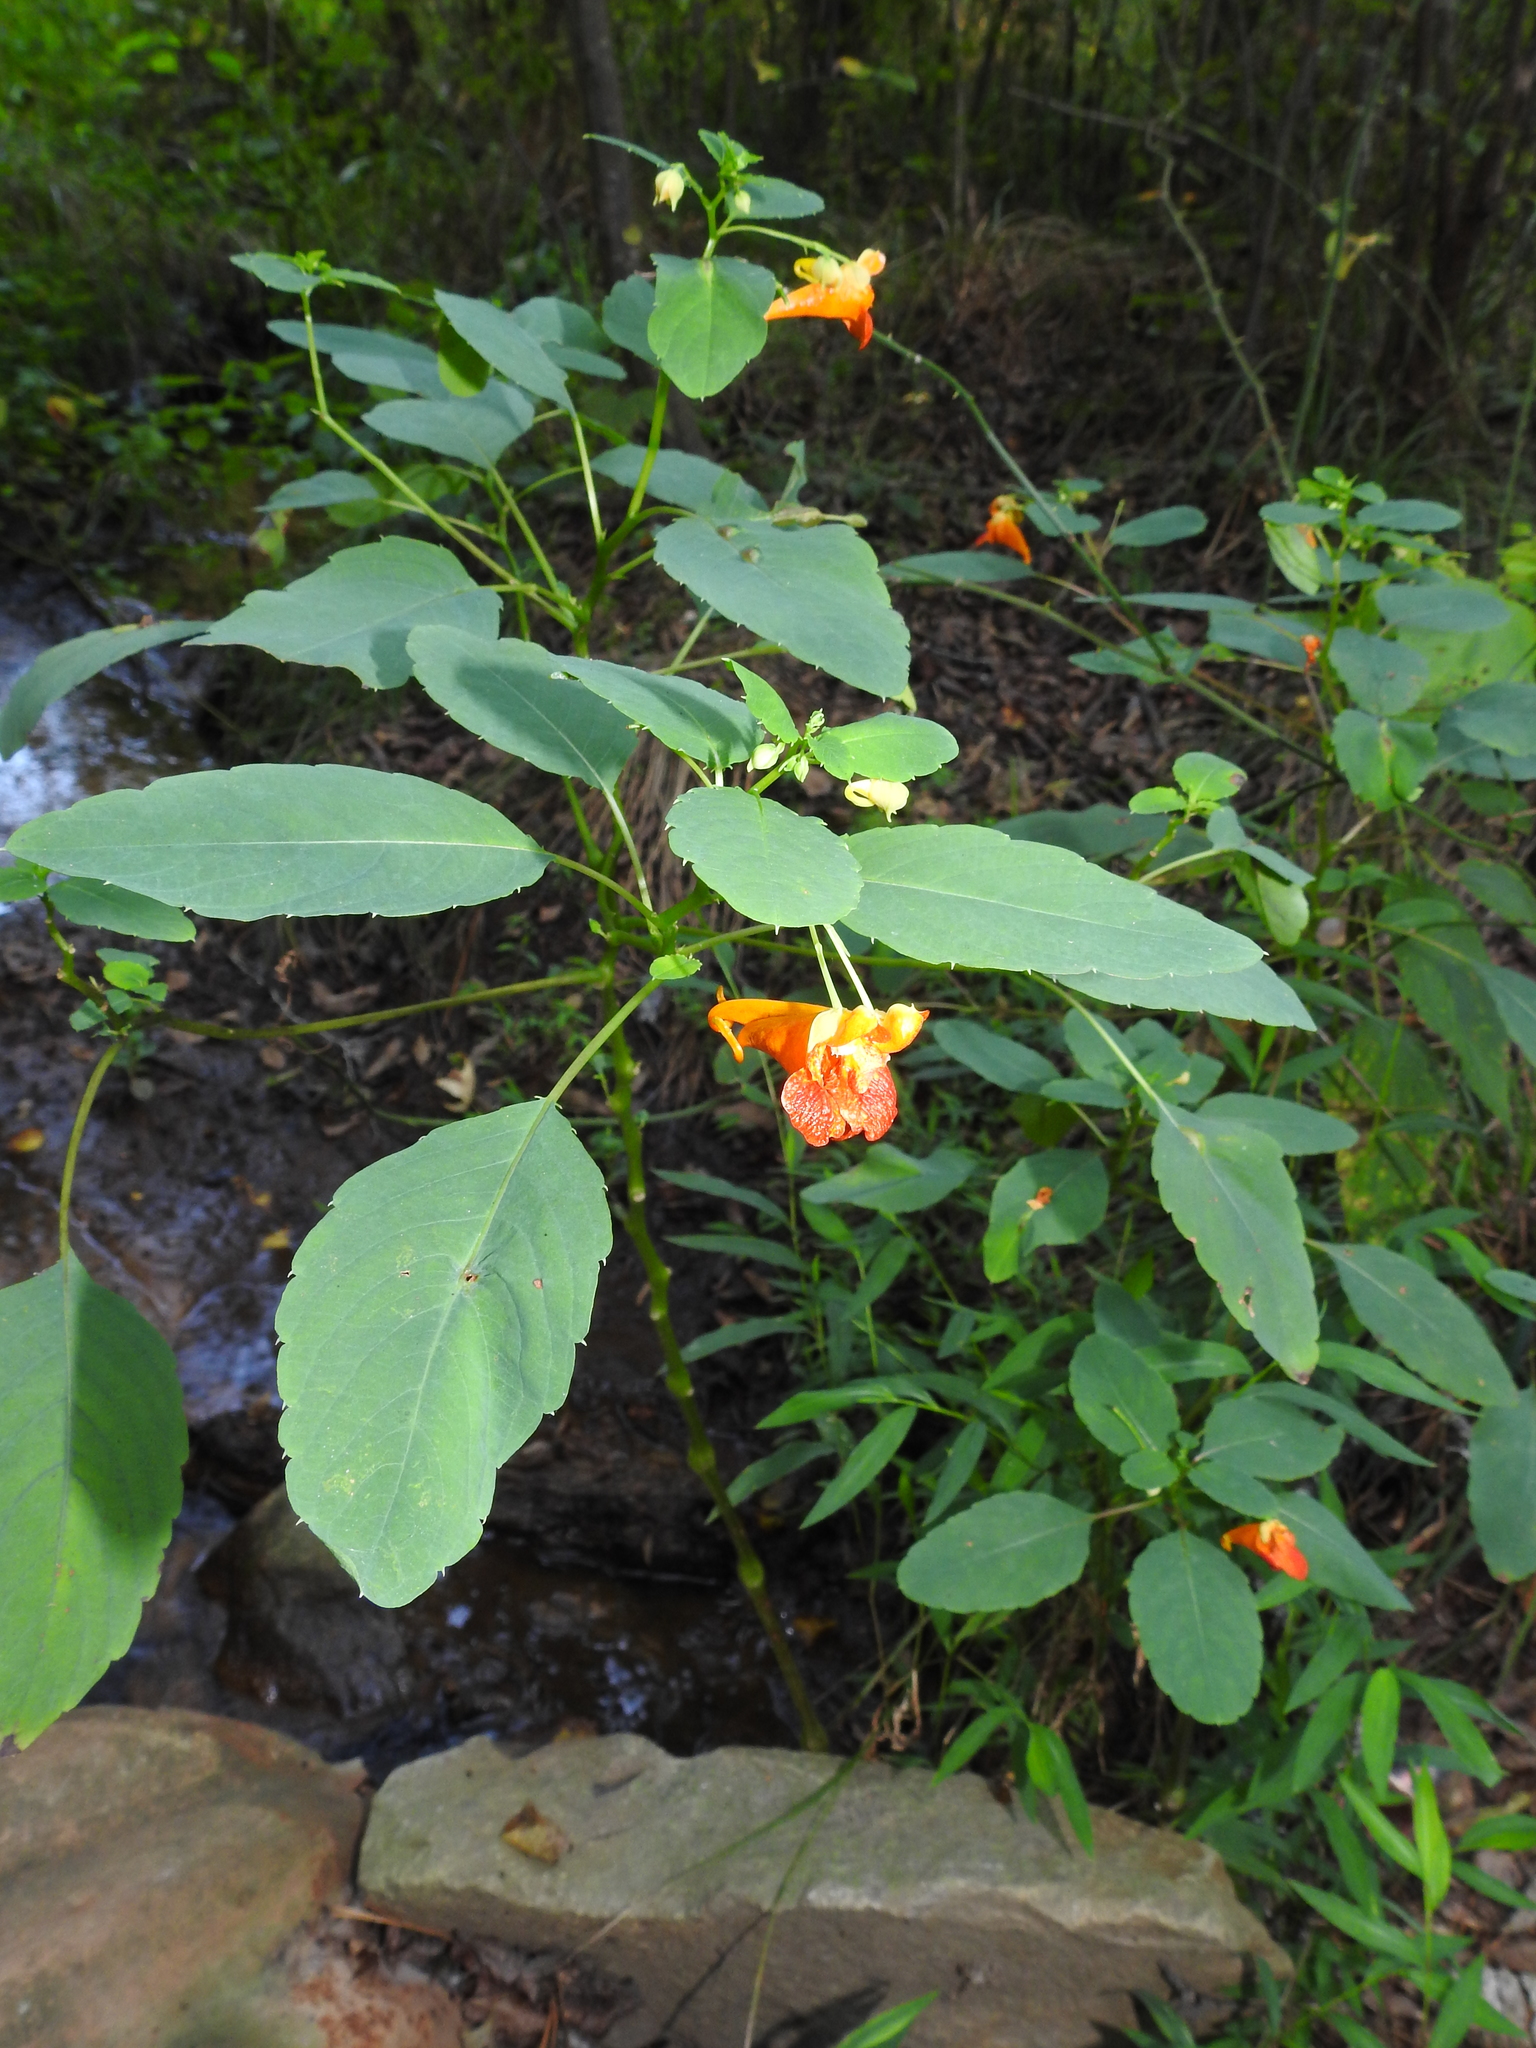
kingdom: Plantae
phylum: Tracheophyta
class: Magnoliopsida
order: Ericales
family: Balsaminaceae
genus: Impatiens
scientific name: Impatiens capensis
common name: Orange balsam
